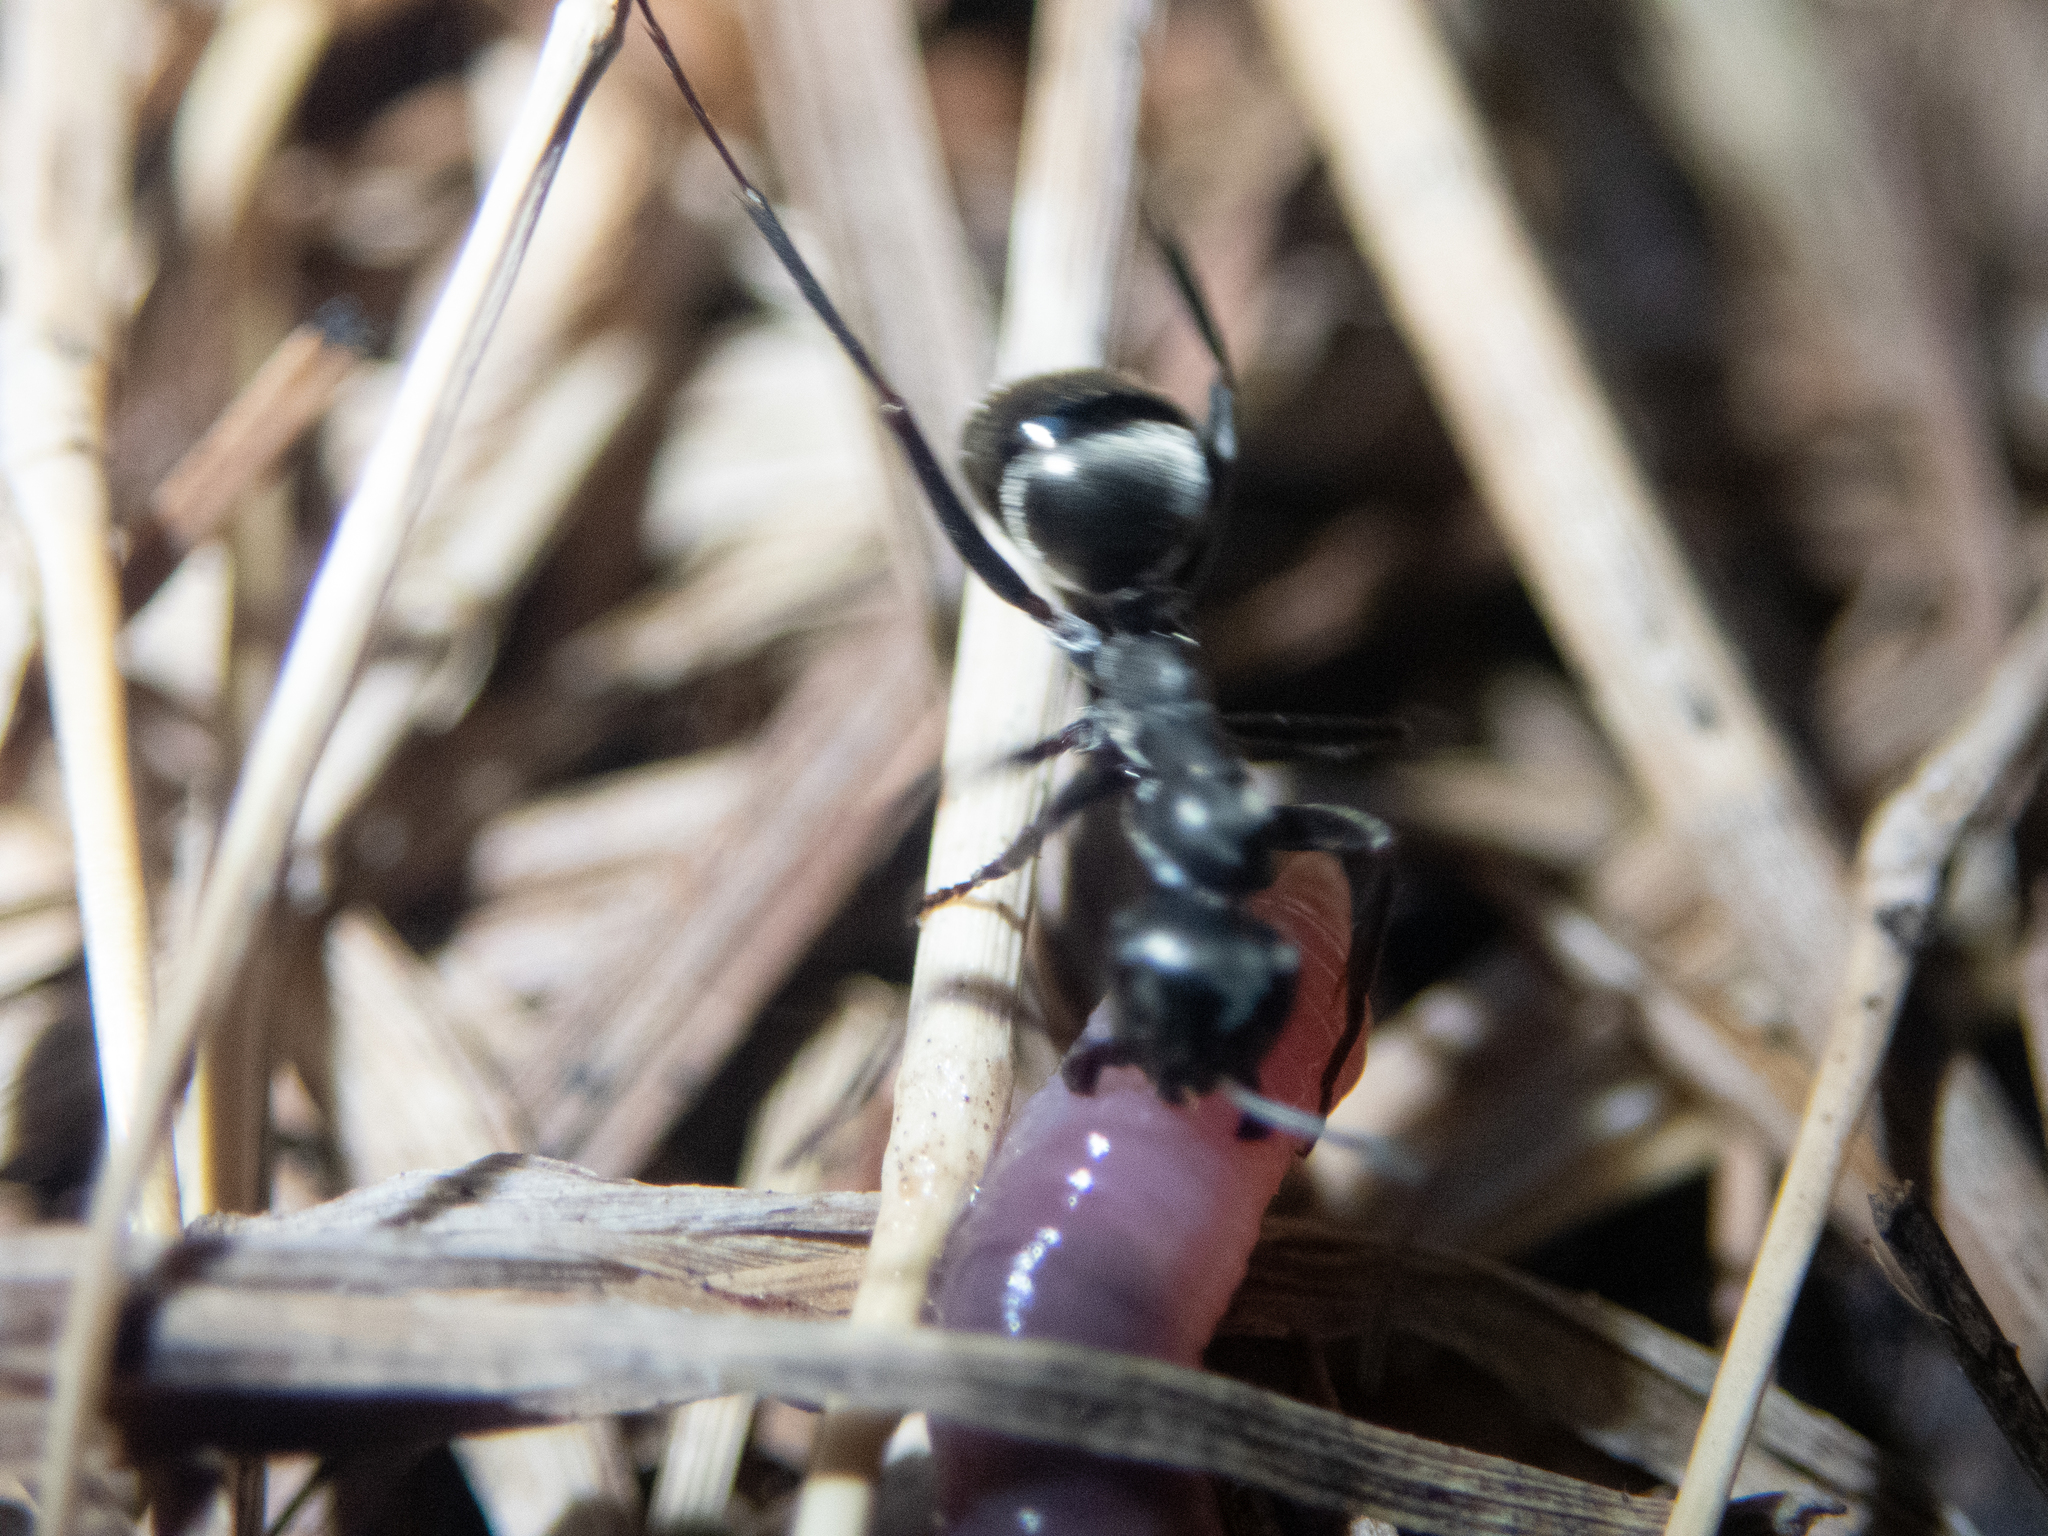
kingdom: Animalia
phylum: Arthropoda
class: Insecta
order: Hymenoptera
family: Formicidae
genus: Formica
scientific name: Formica subsericea
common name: Silky field ant
